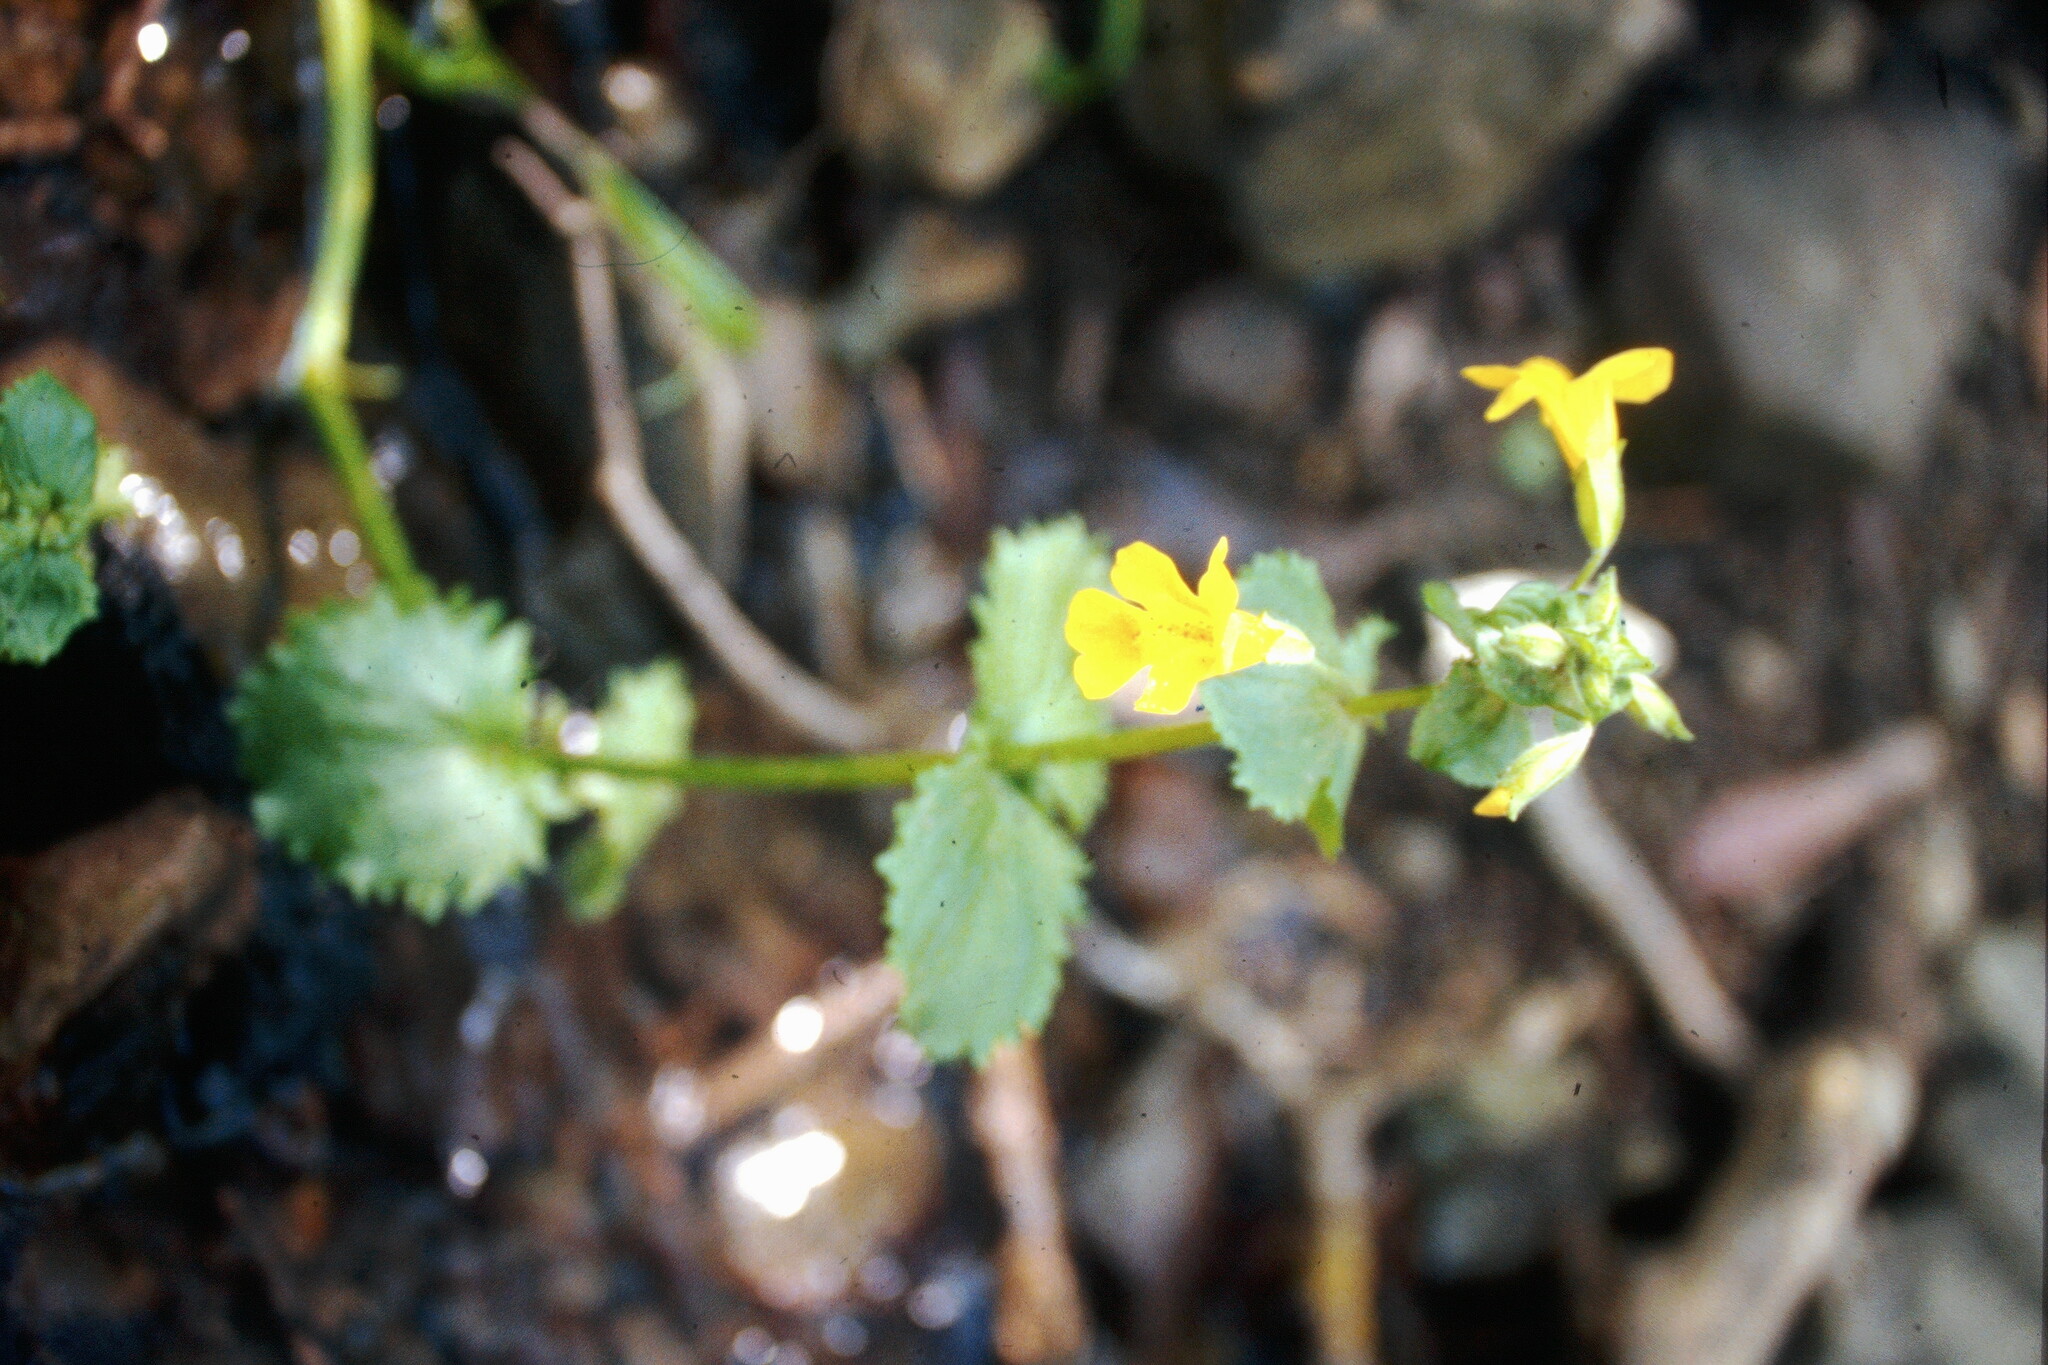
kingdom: Plantae
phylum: Tracheophyta
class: Magnoliopsida
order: Lamiales
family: Phrymaceae
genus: Erythranthe
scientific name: Erythranthe guttata
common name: Monkeyflower
